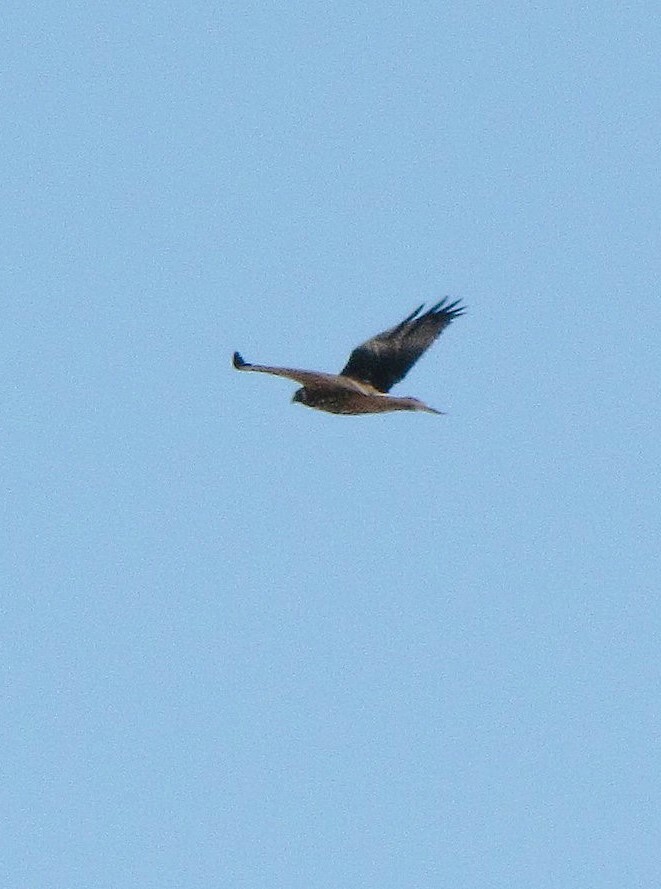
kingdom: Animalia
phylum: Chordata
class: Aves
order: Accipitriformes
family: Accipitridae
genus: Buteo
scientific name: Buteo polyosoma
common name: Variable hawk
